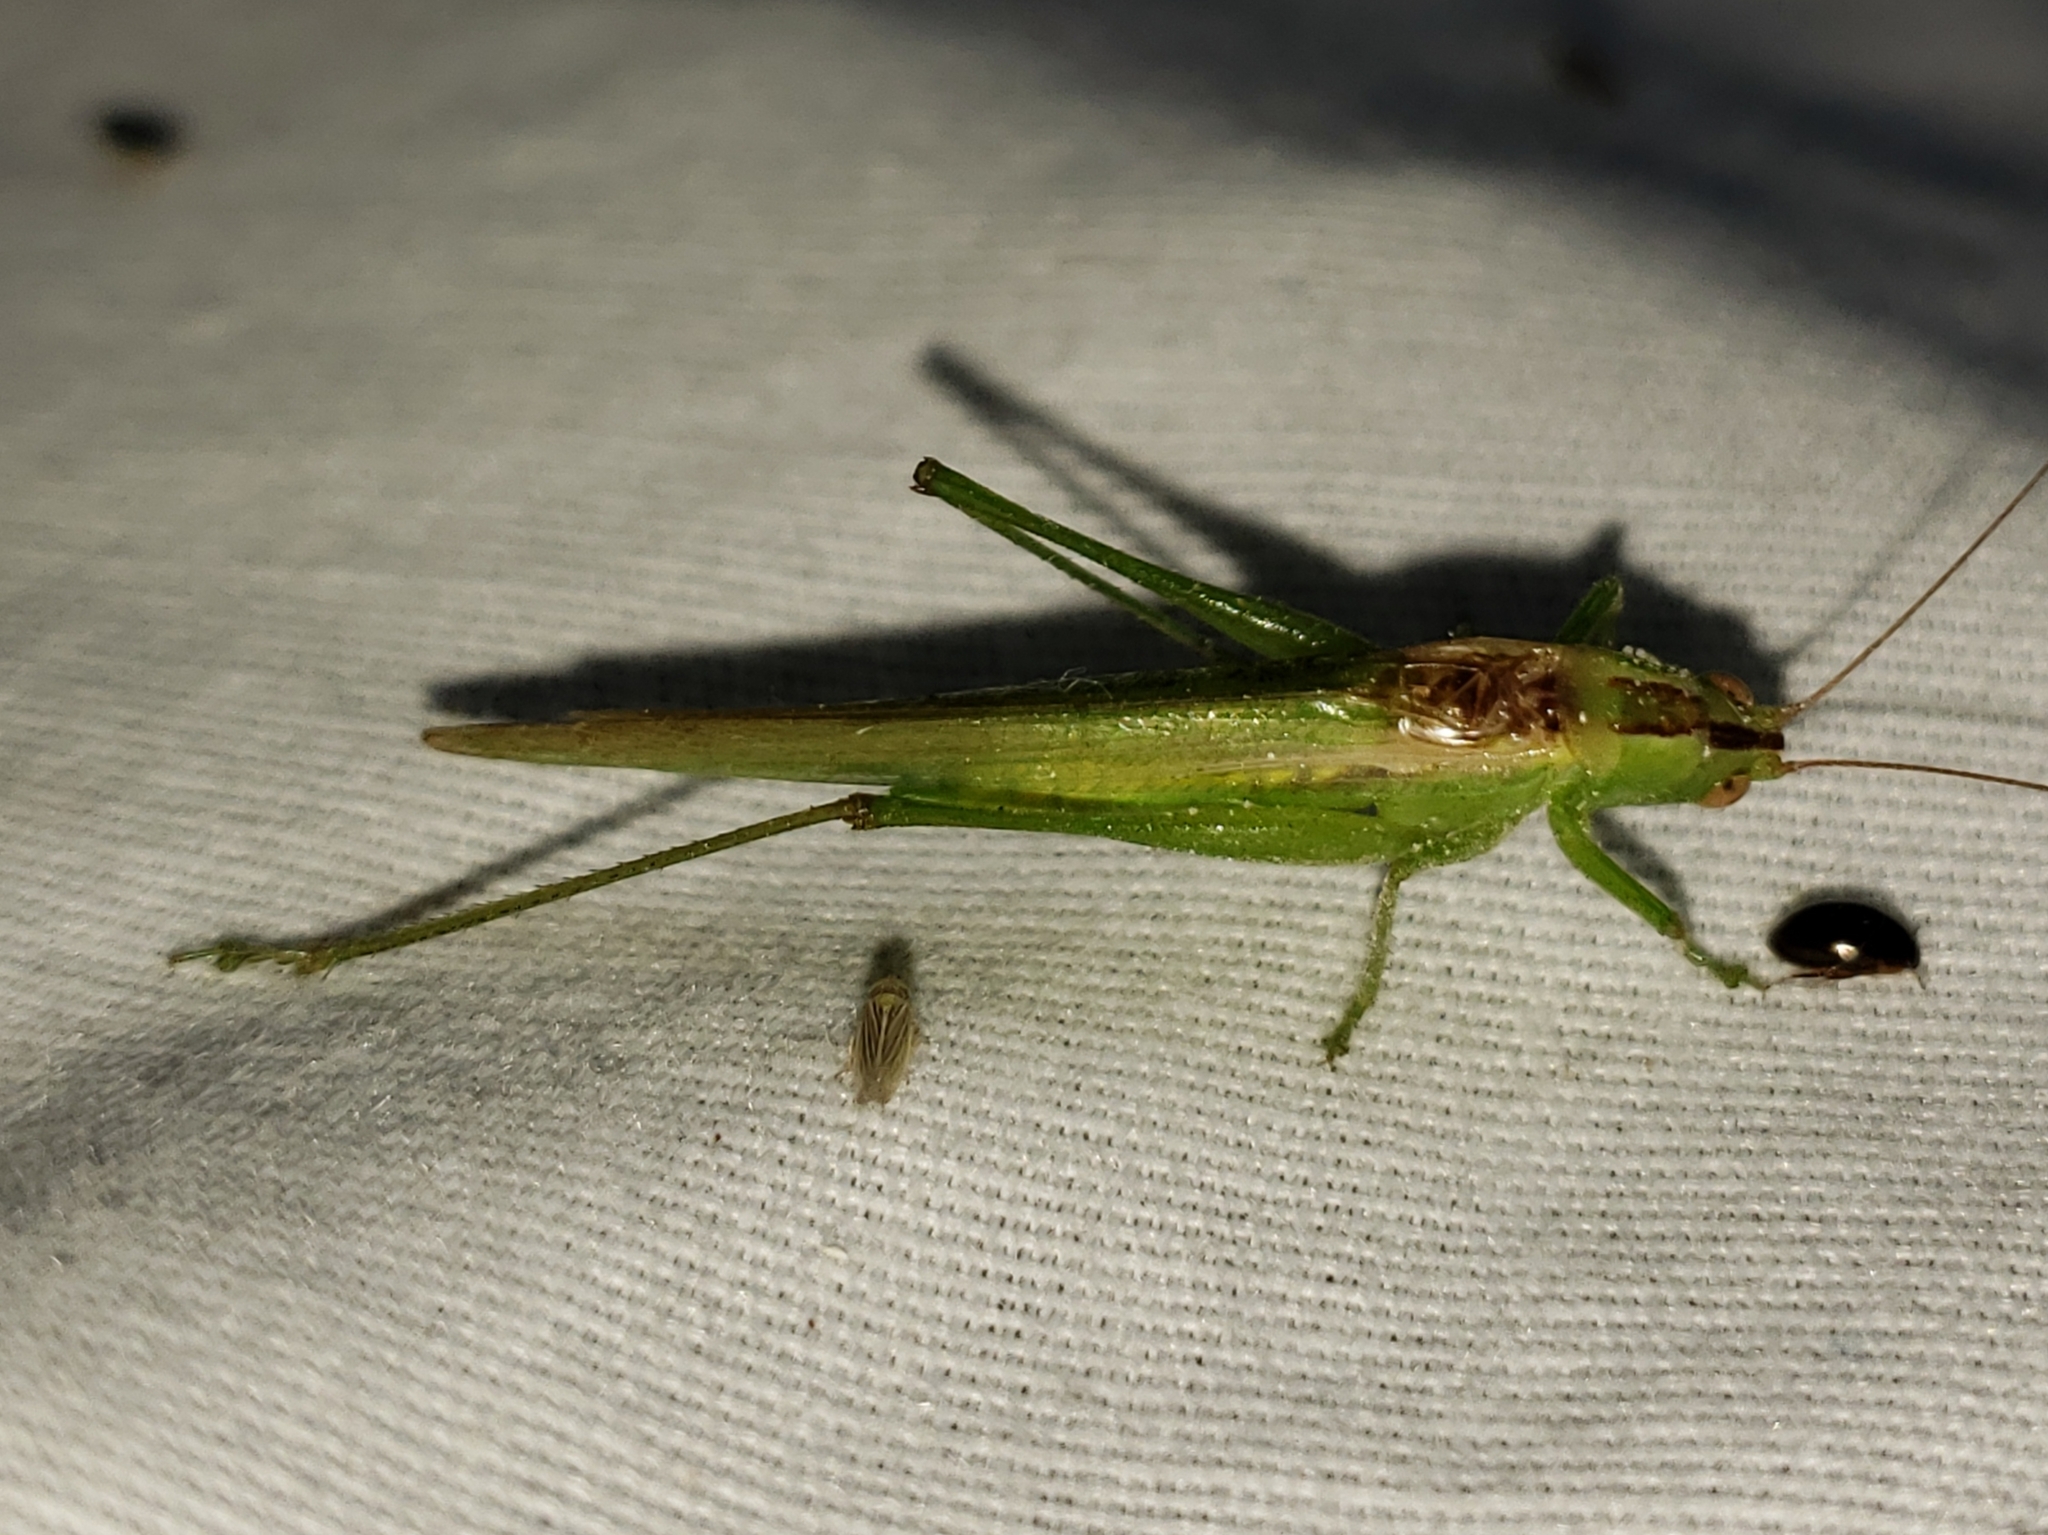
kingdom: Animalia
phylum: Arthropoda
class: Insecta
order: Orthoptera
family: Tettigoniidae
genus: Conocephalus
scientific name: Conocephalus fasciatus
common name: Slender meadow katydid
